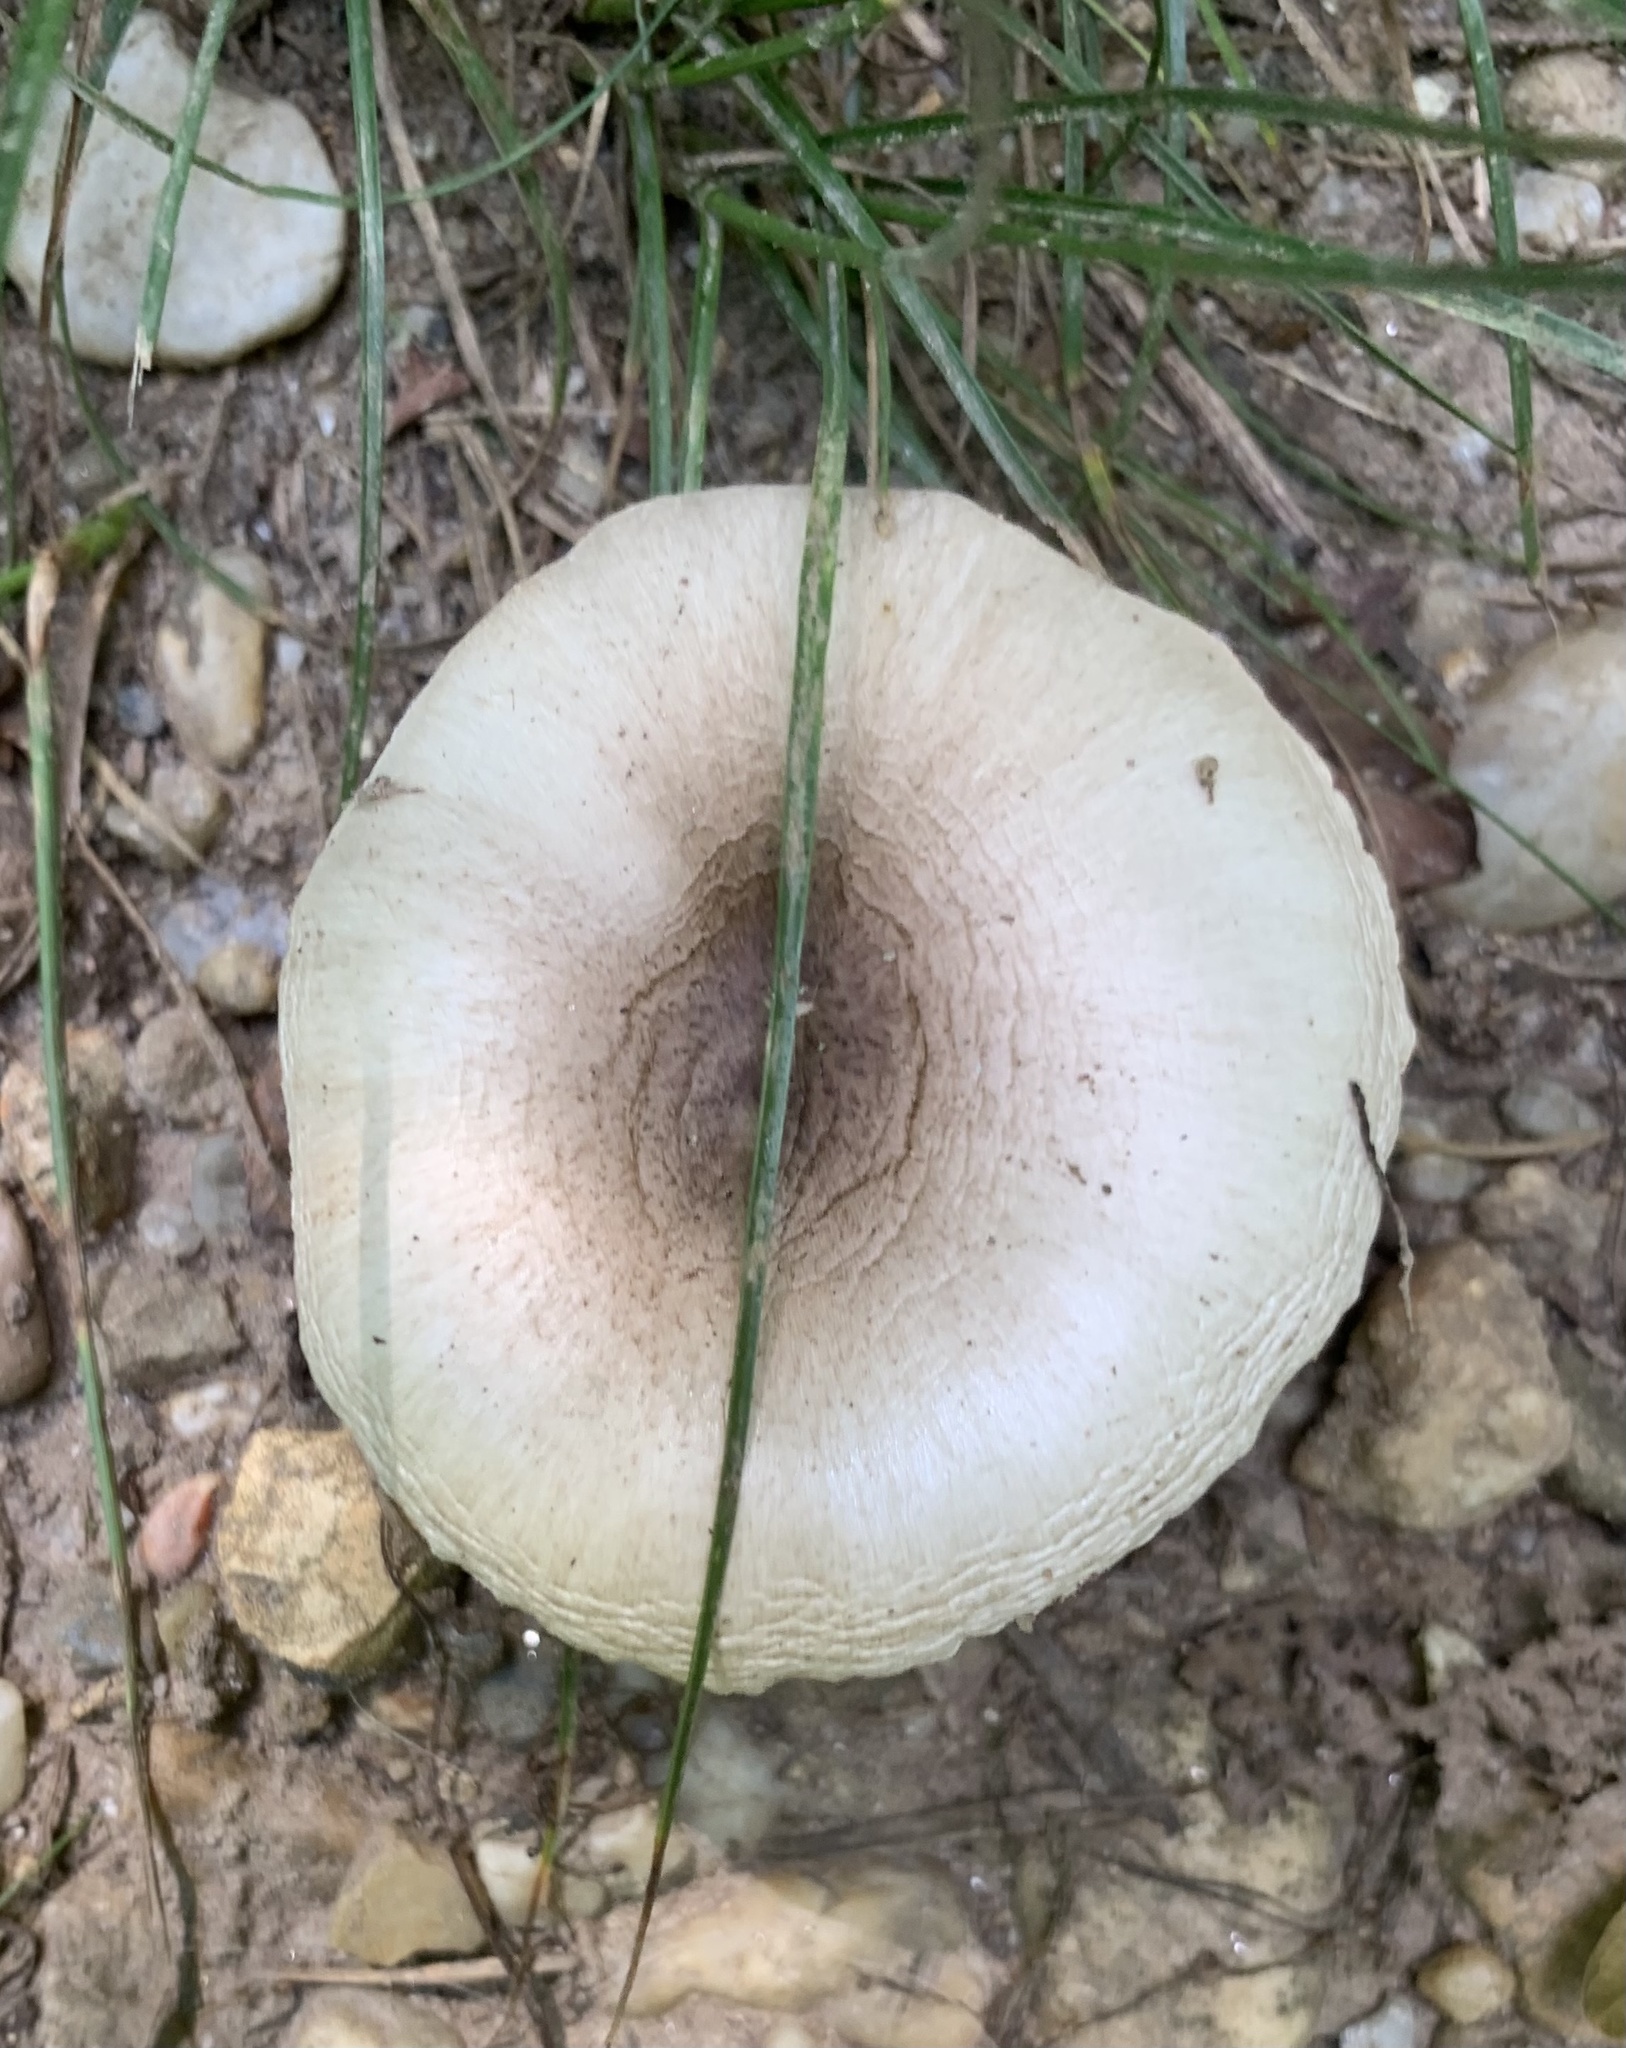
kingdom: Fungi
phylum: Basidiomycota
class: Agaricomycetes
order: Agaricales
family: Pluteaceae
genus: Pluteus
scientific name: Pluteus petasatus
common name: Scaly shield
